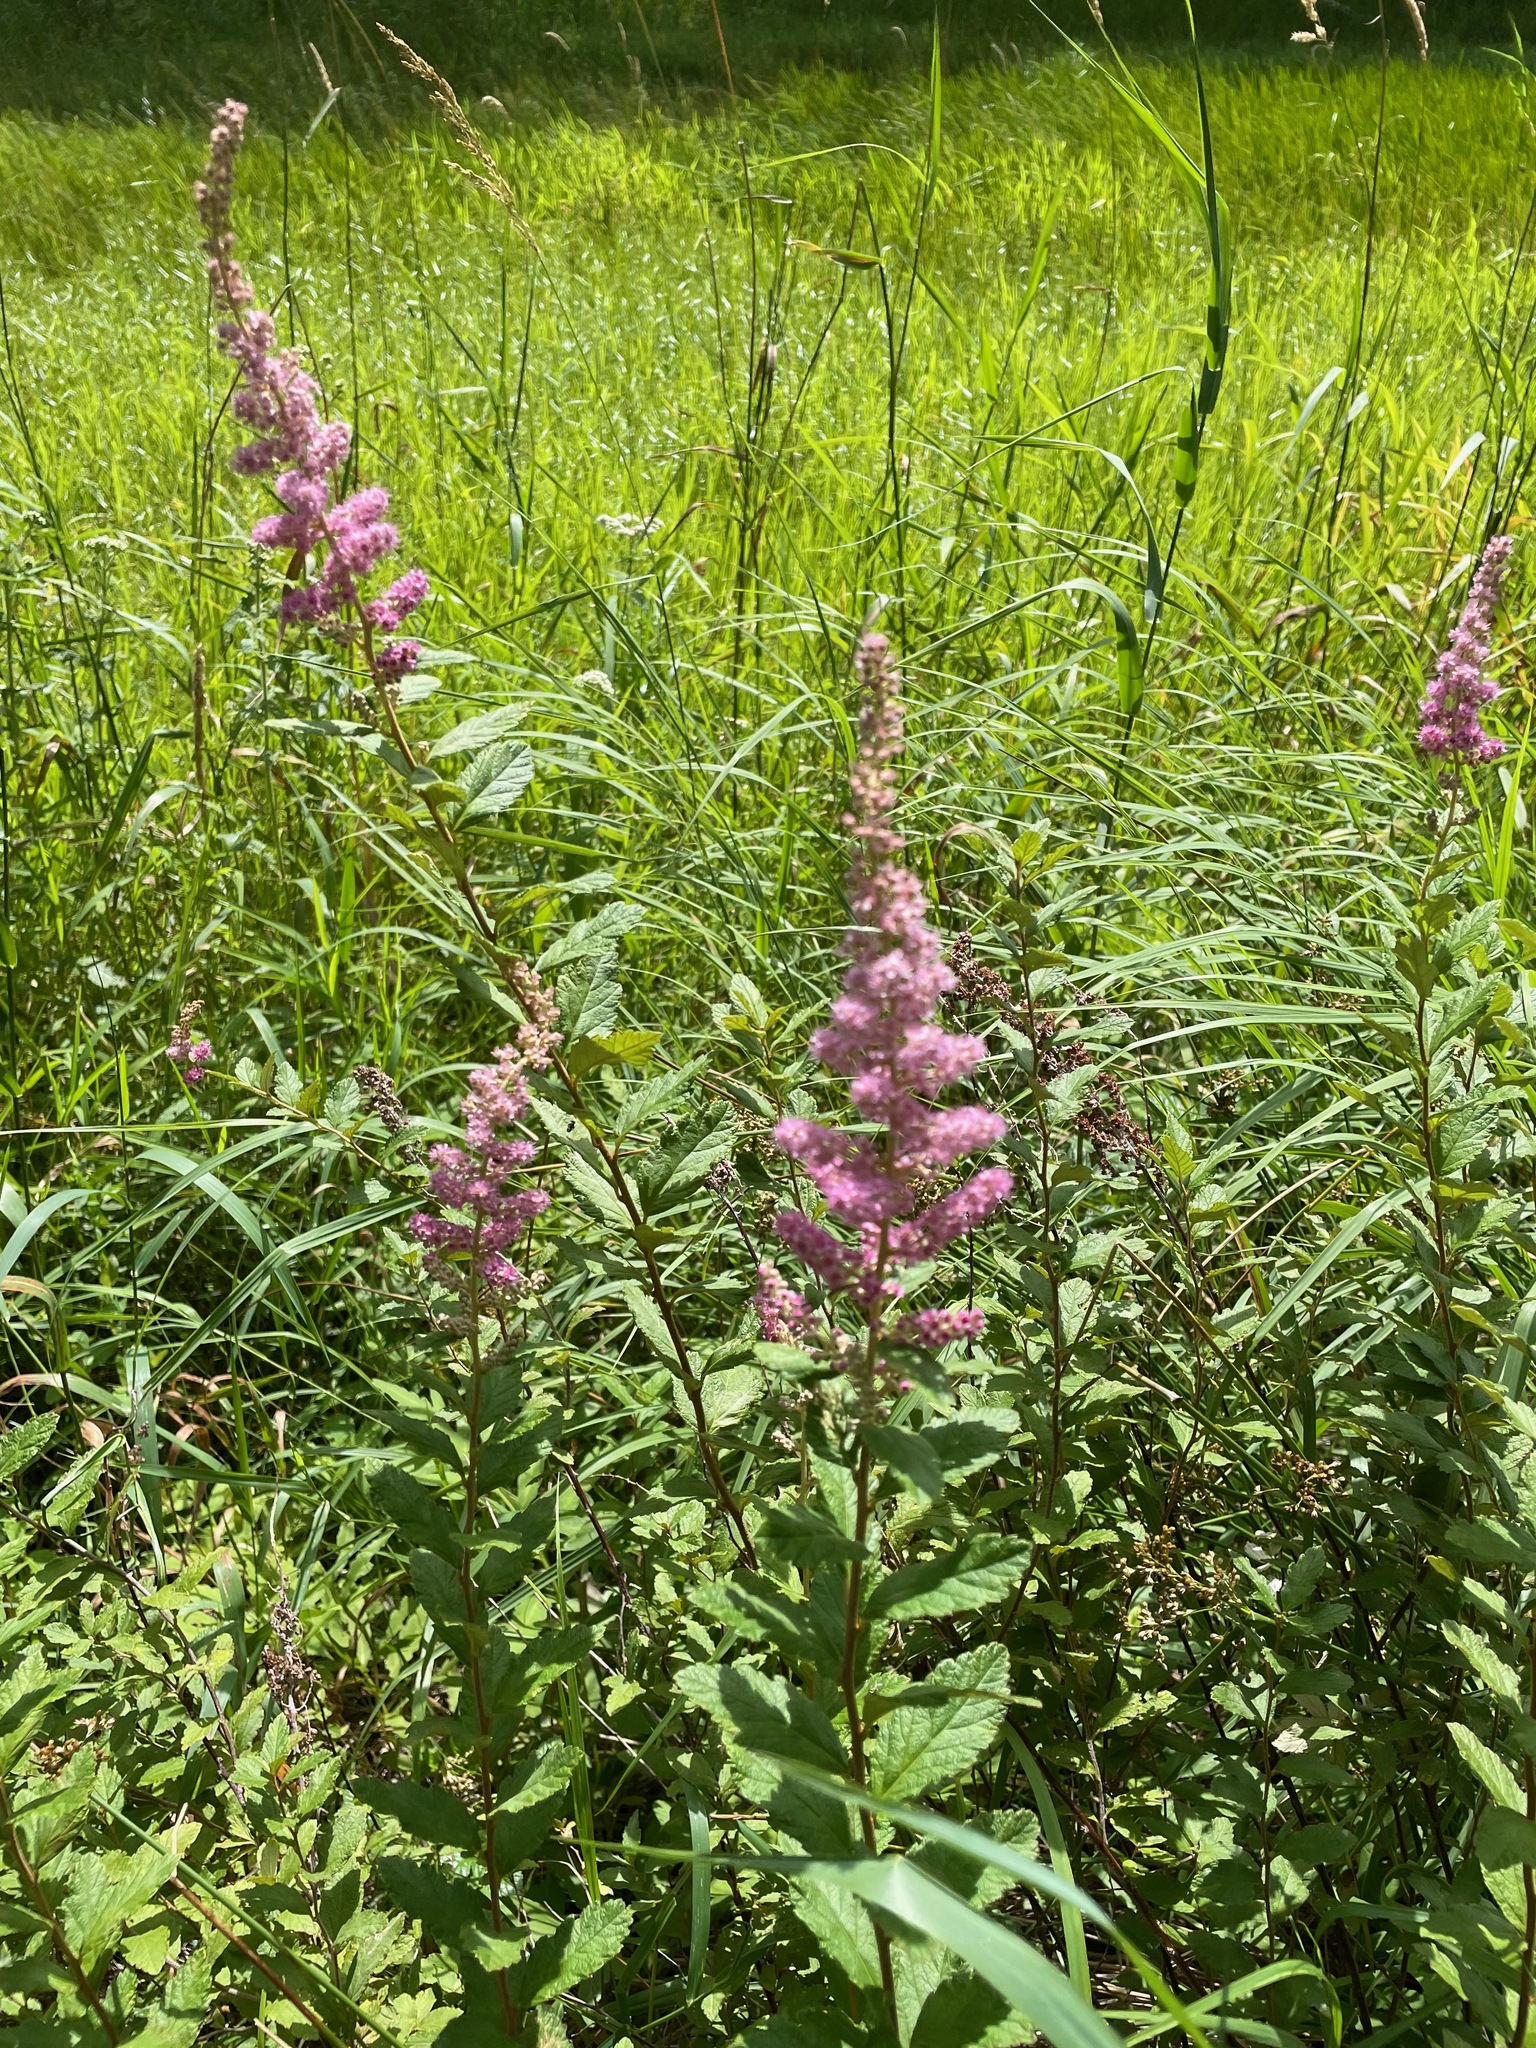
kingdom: Plantae
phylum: Tracheophyta
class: Magnoliopsida
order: Rosales
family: Rosaceae
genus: Spiraea
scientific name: Spiraea tomentosa
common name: Hardhack
